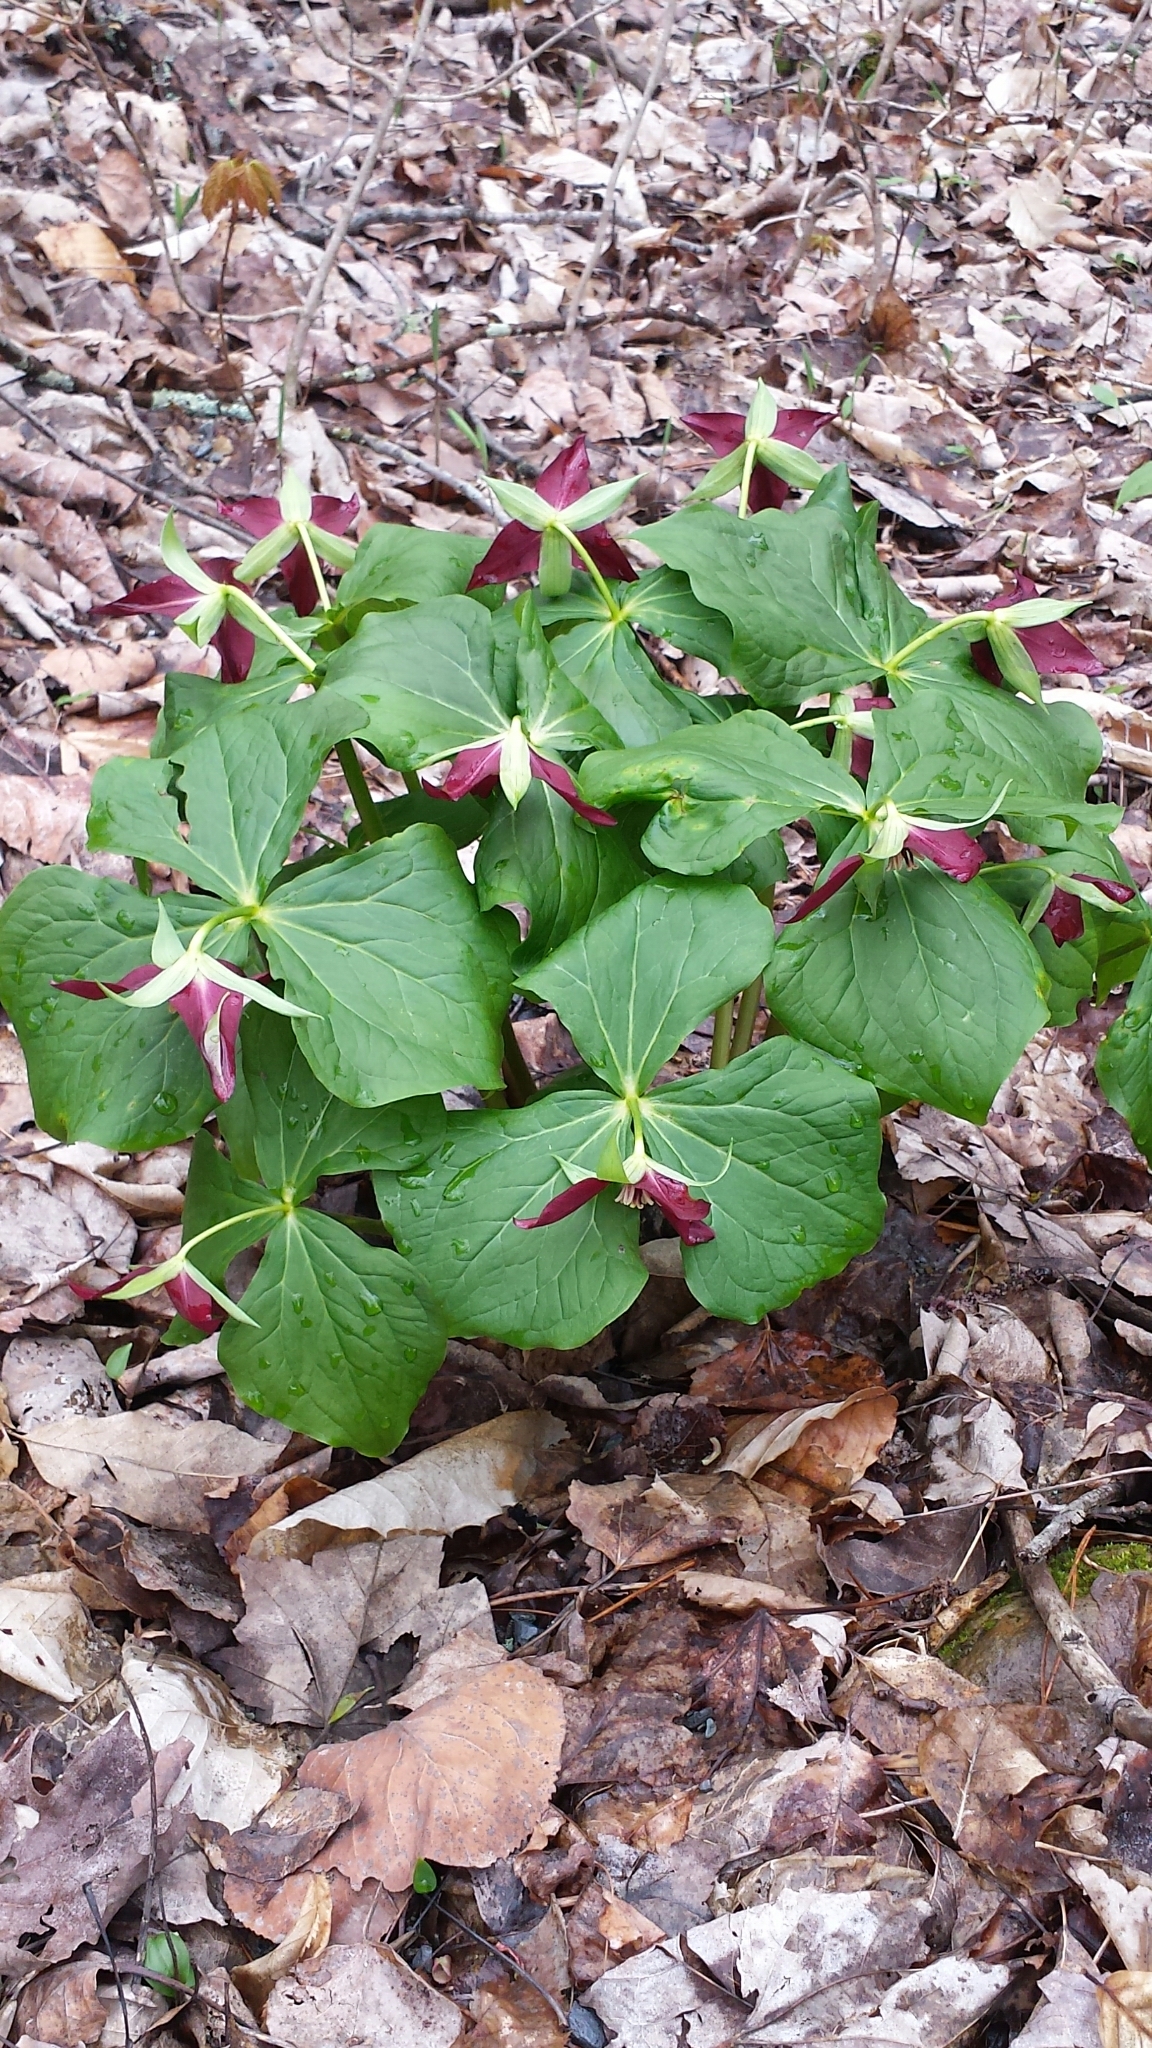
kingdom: Plantae
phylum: Tracheophyta
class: Liliopsida
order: Liliales
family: Melanthiaceae
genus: Trillium
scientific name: Trillium erectum
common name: Purple trillium
